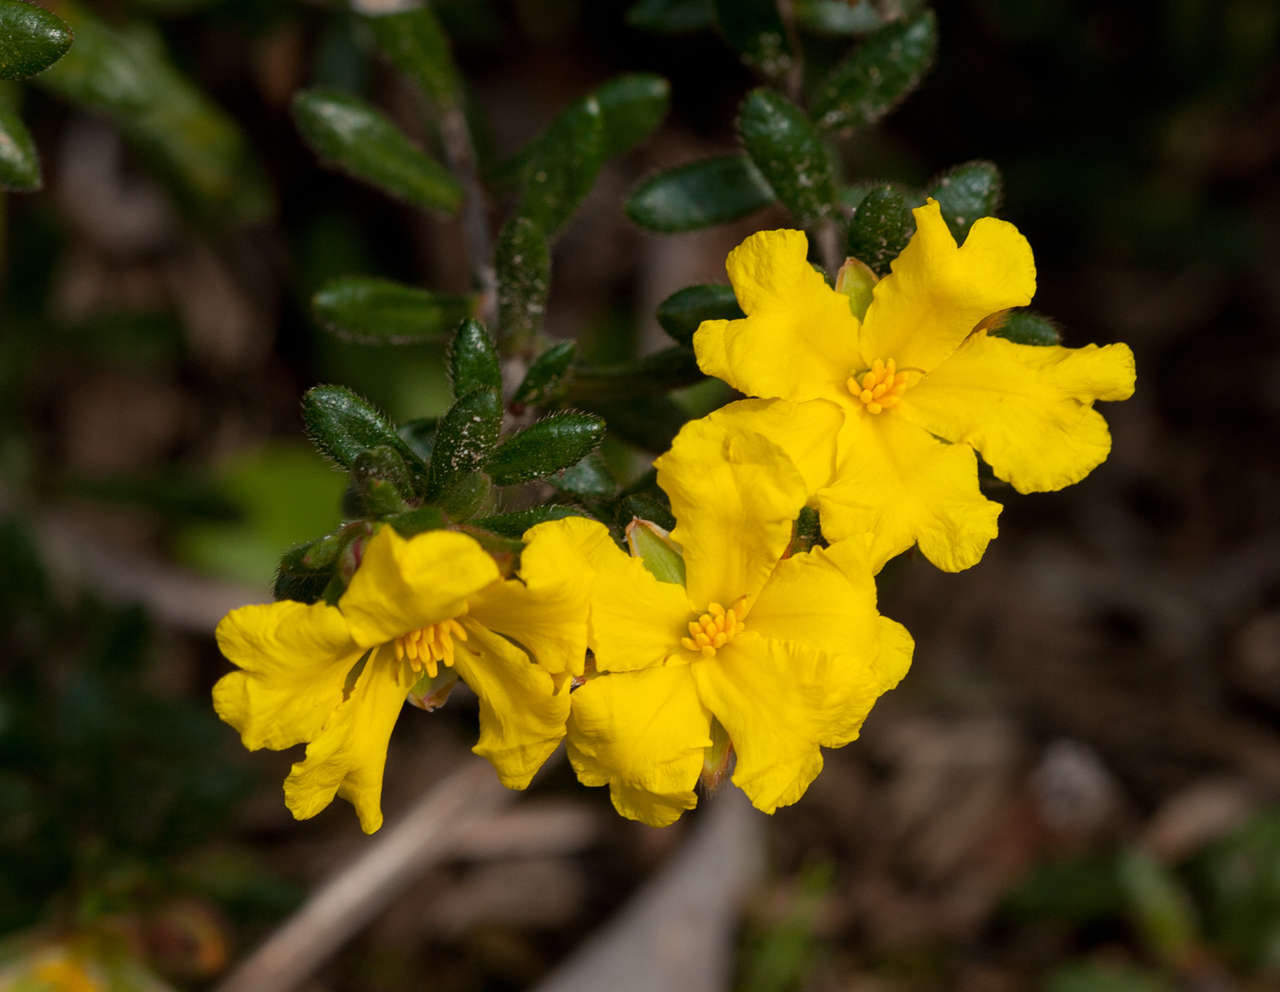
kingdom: Plantae
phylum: Tracheophyta
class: Magnoliopsida
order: Dilleniales
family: Dilleniaceae
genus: Hibbertia
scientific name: Hibbertia sericea
